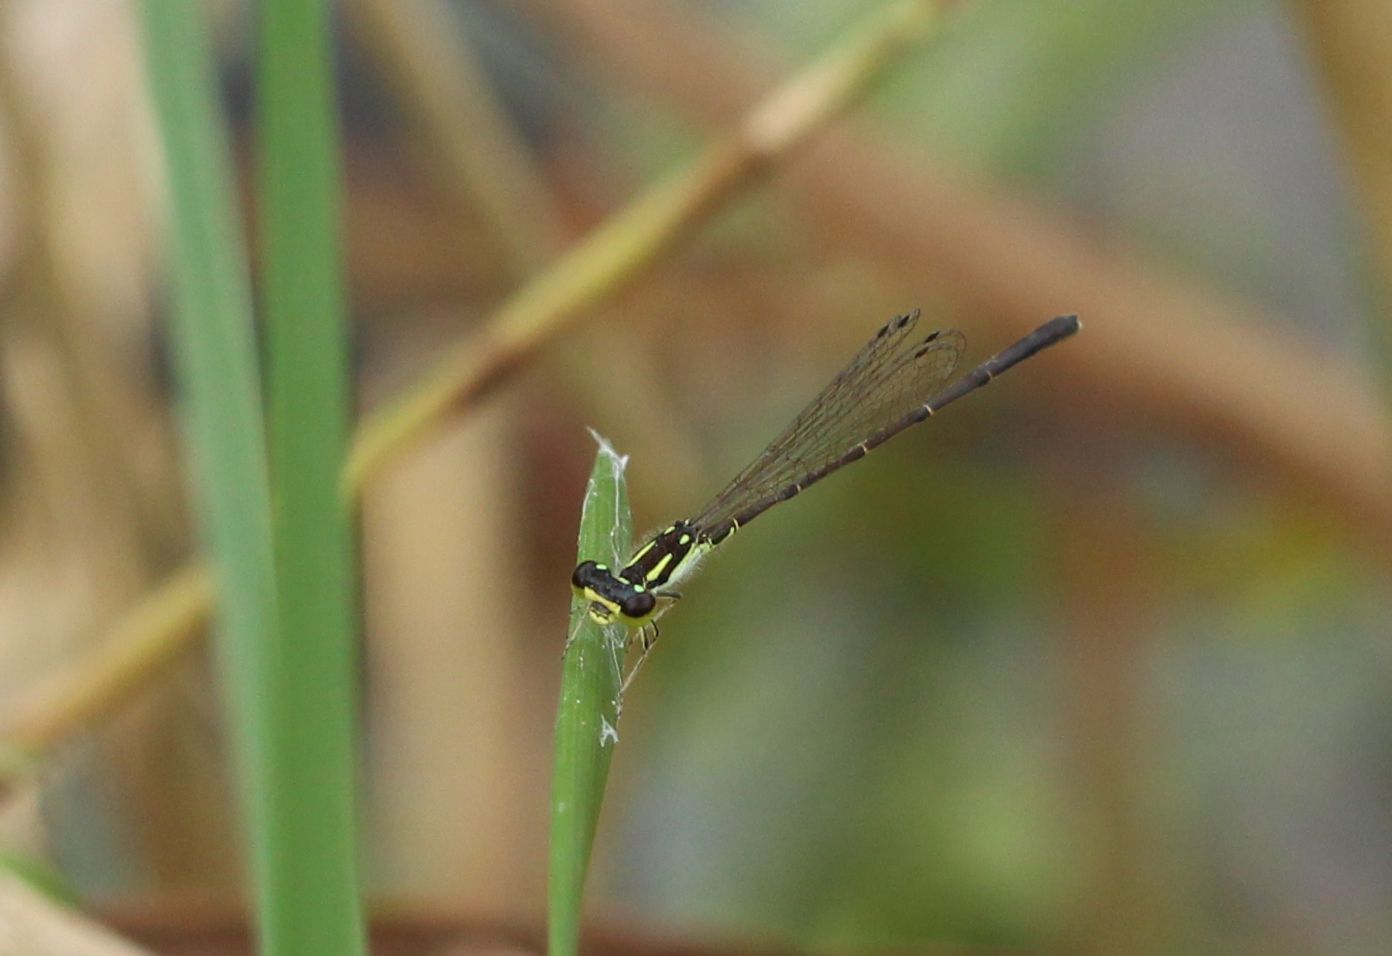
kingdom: Animalia
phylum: Arthropoda
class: Insecta
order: Odonata
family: Coenagrionidae
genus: Ischnura
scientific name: Ischnura posita
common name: Fragile forktail
